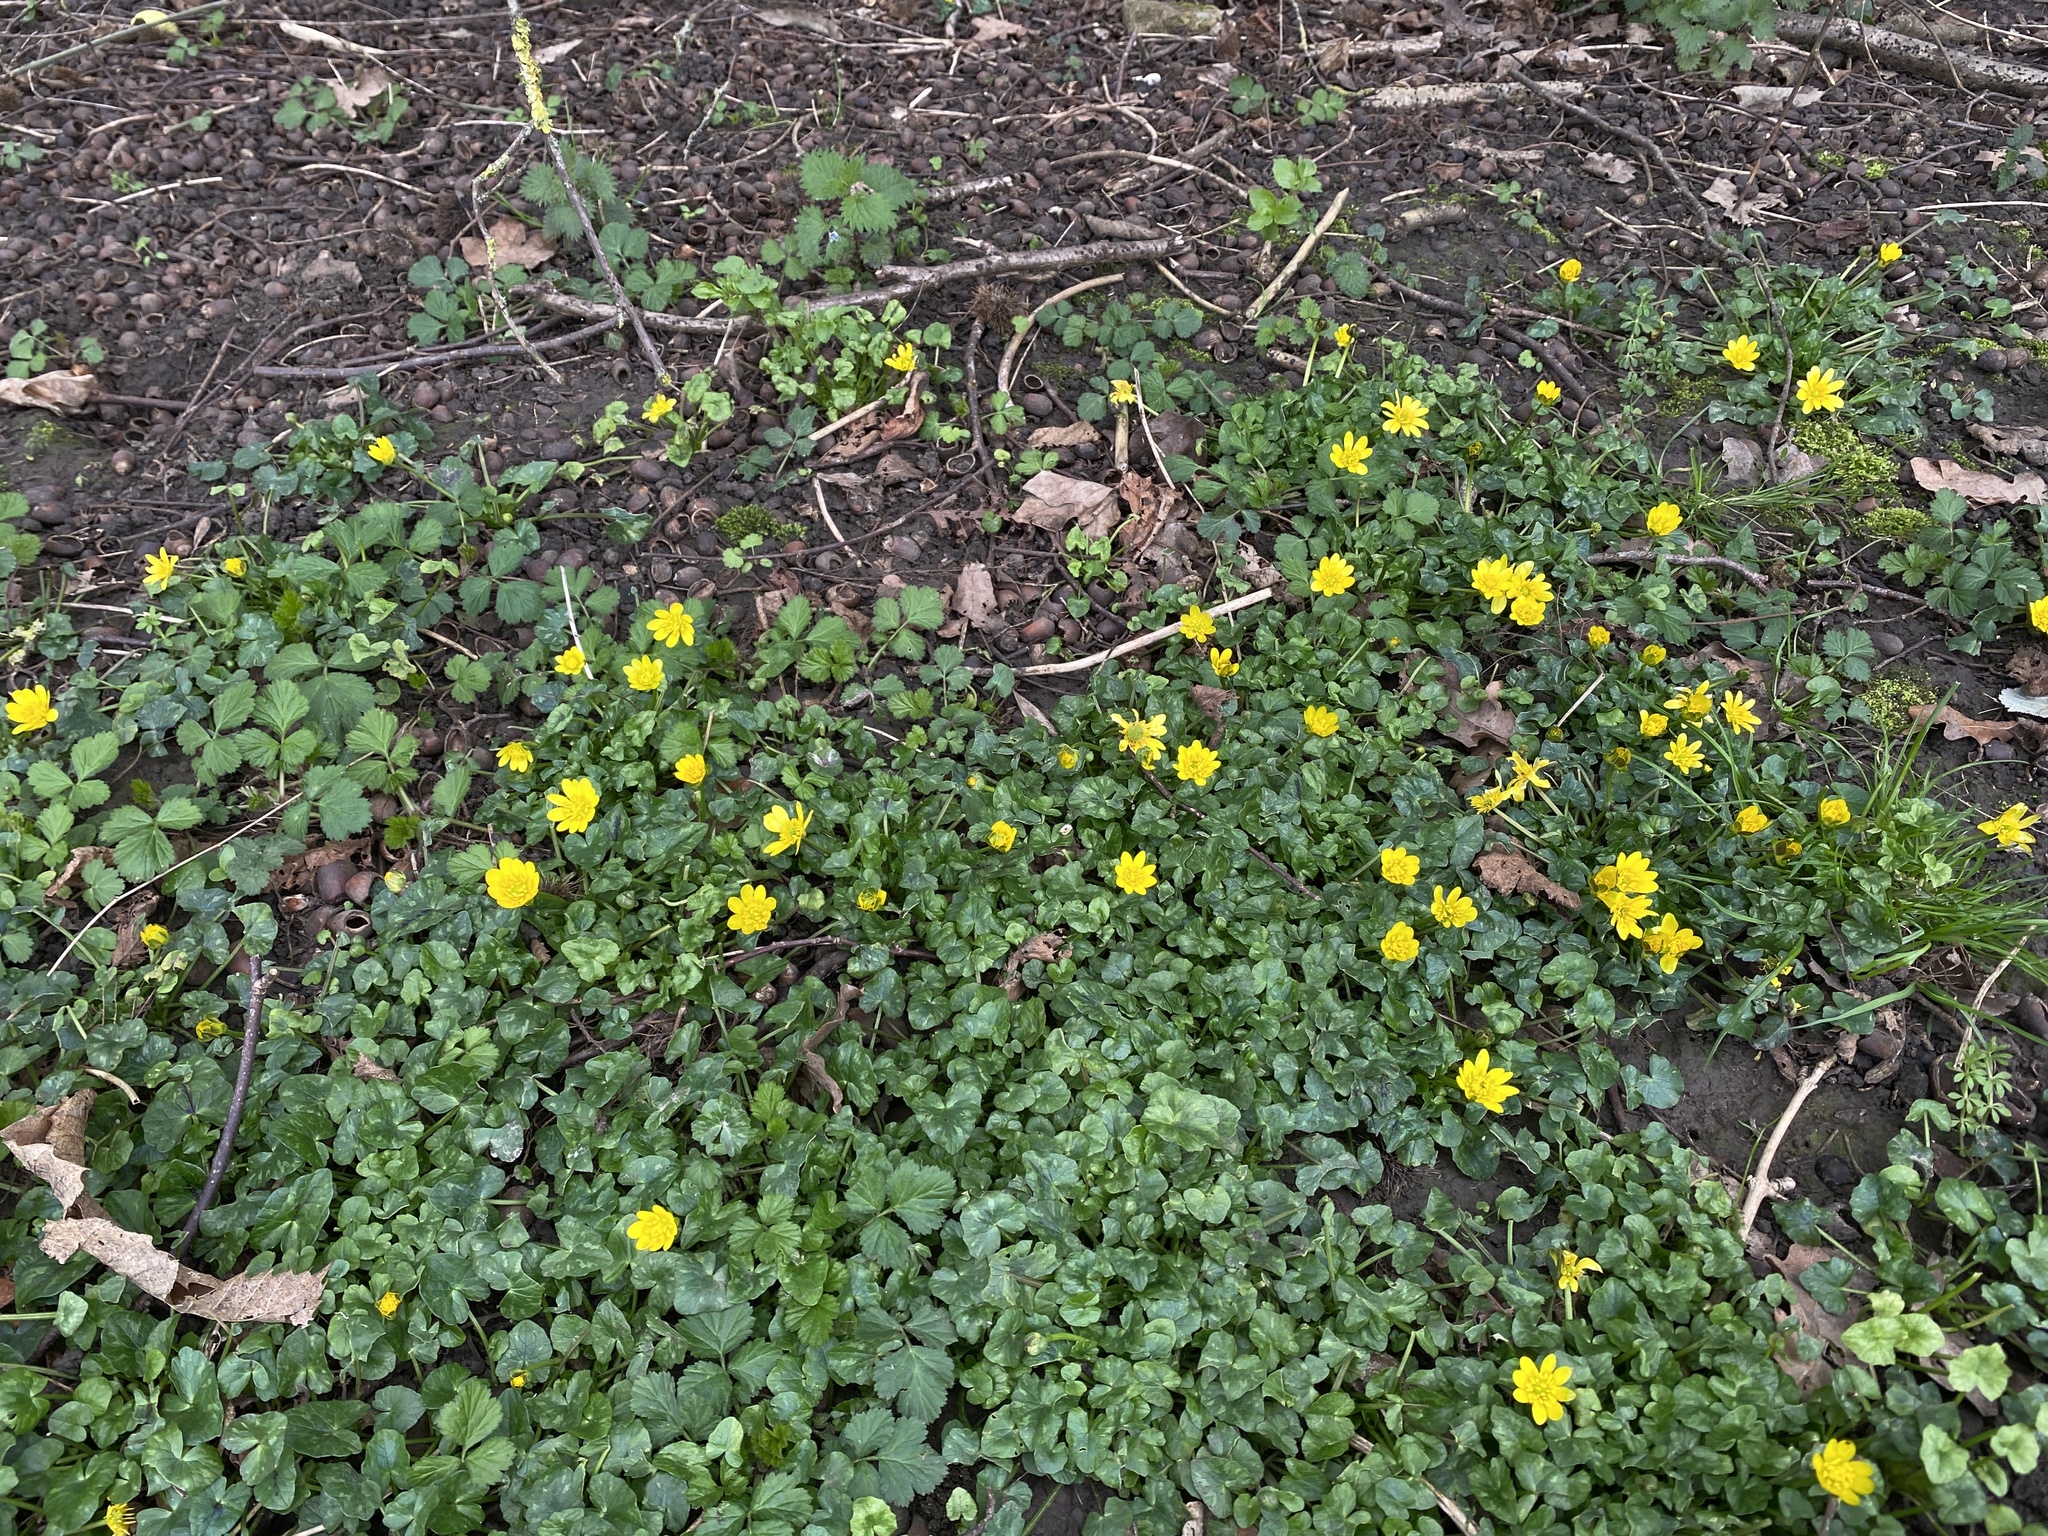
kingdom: Plantae
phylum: Tracheophyta
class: Magnoliopsida
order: Ranunculales
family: Ranunculaceae
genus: Ficaria
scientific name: Ficaria verna
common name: Lesser celandine
